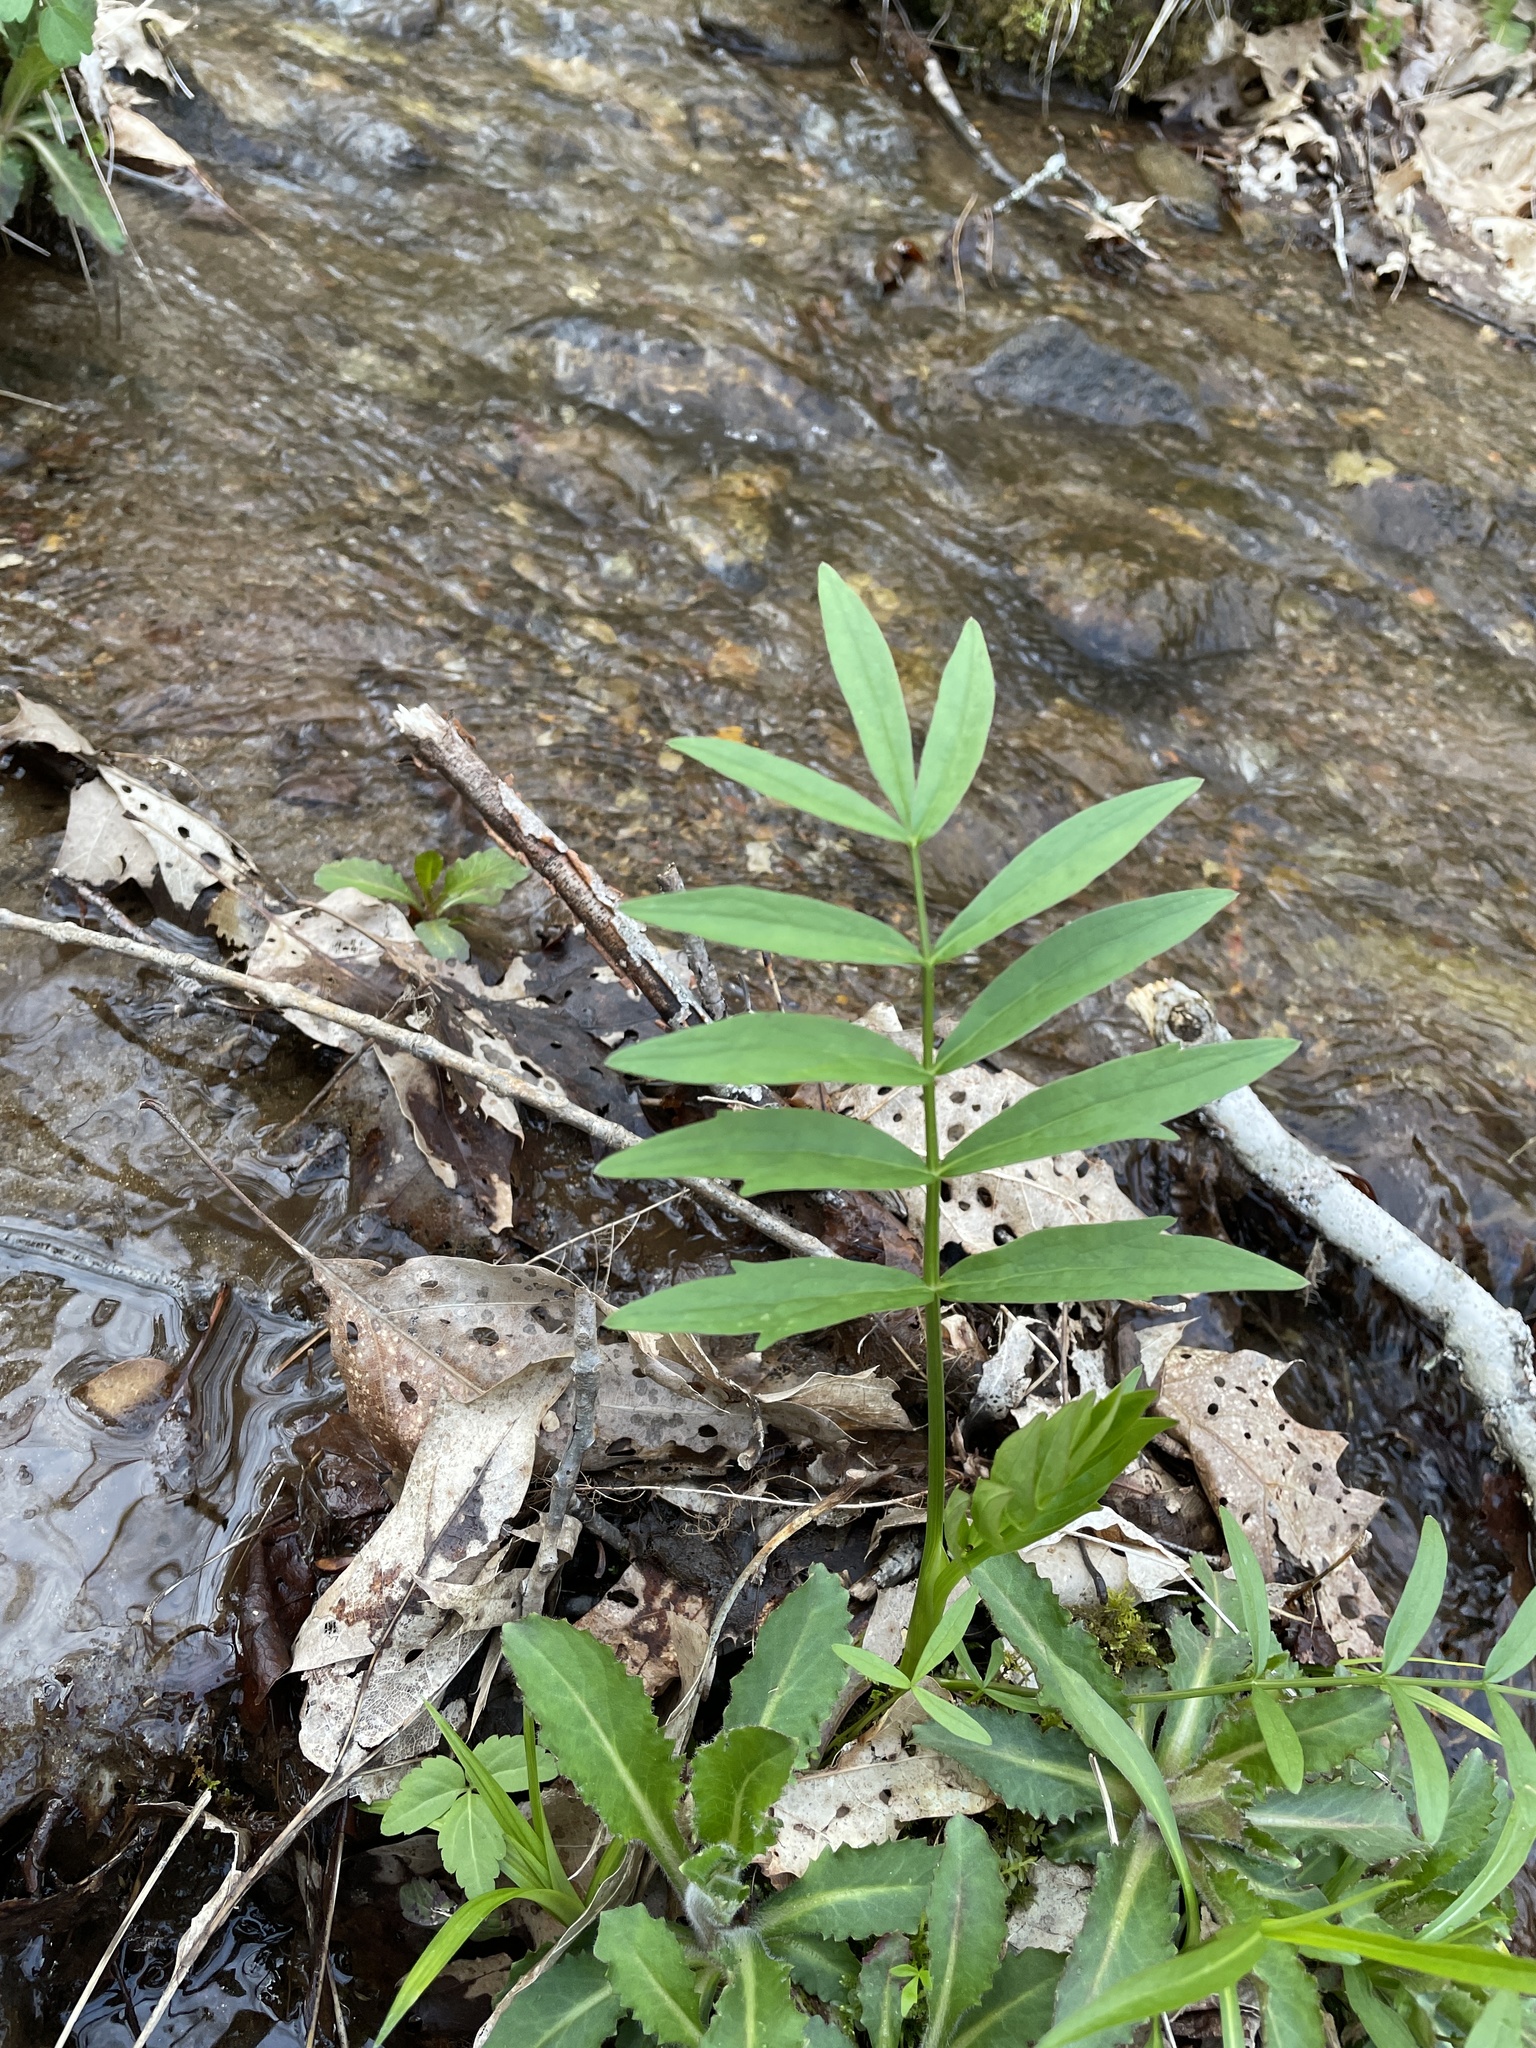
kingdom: Plantae
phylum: Tracheophyta
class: Magnoliopsida
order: Apiales
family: Apiaceae
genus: Oxypolis
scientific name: Oxypolis rigidior
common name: Cowbane
